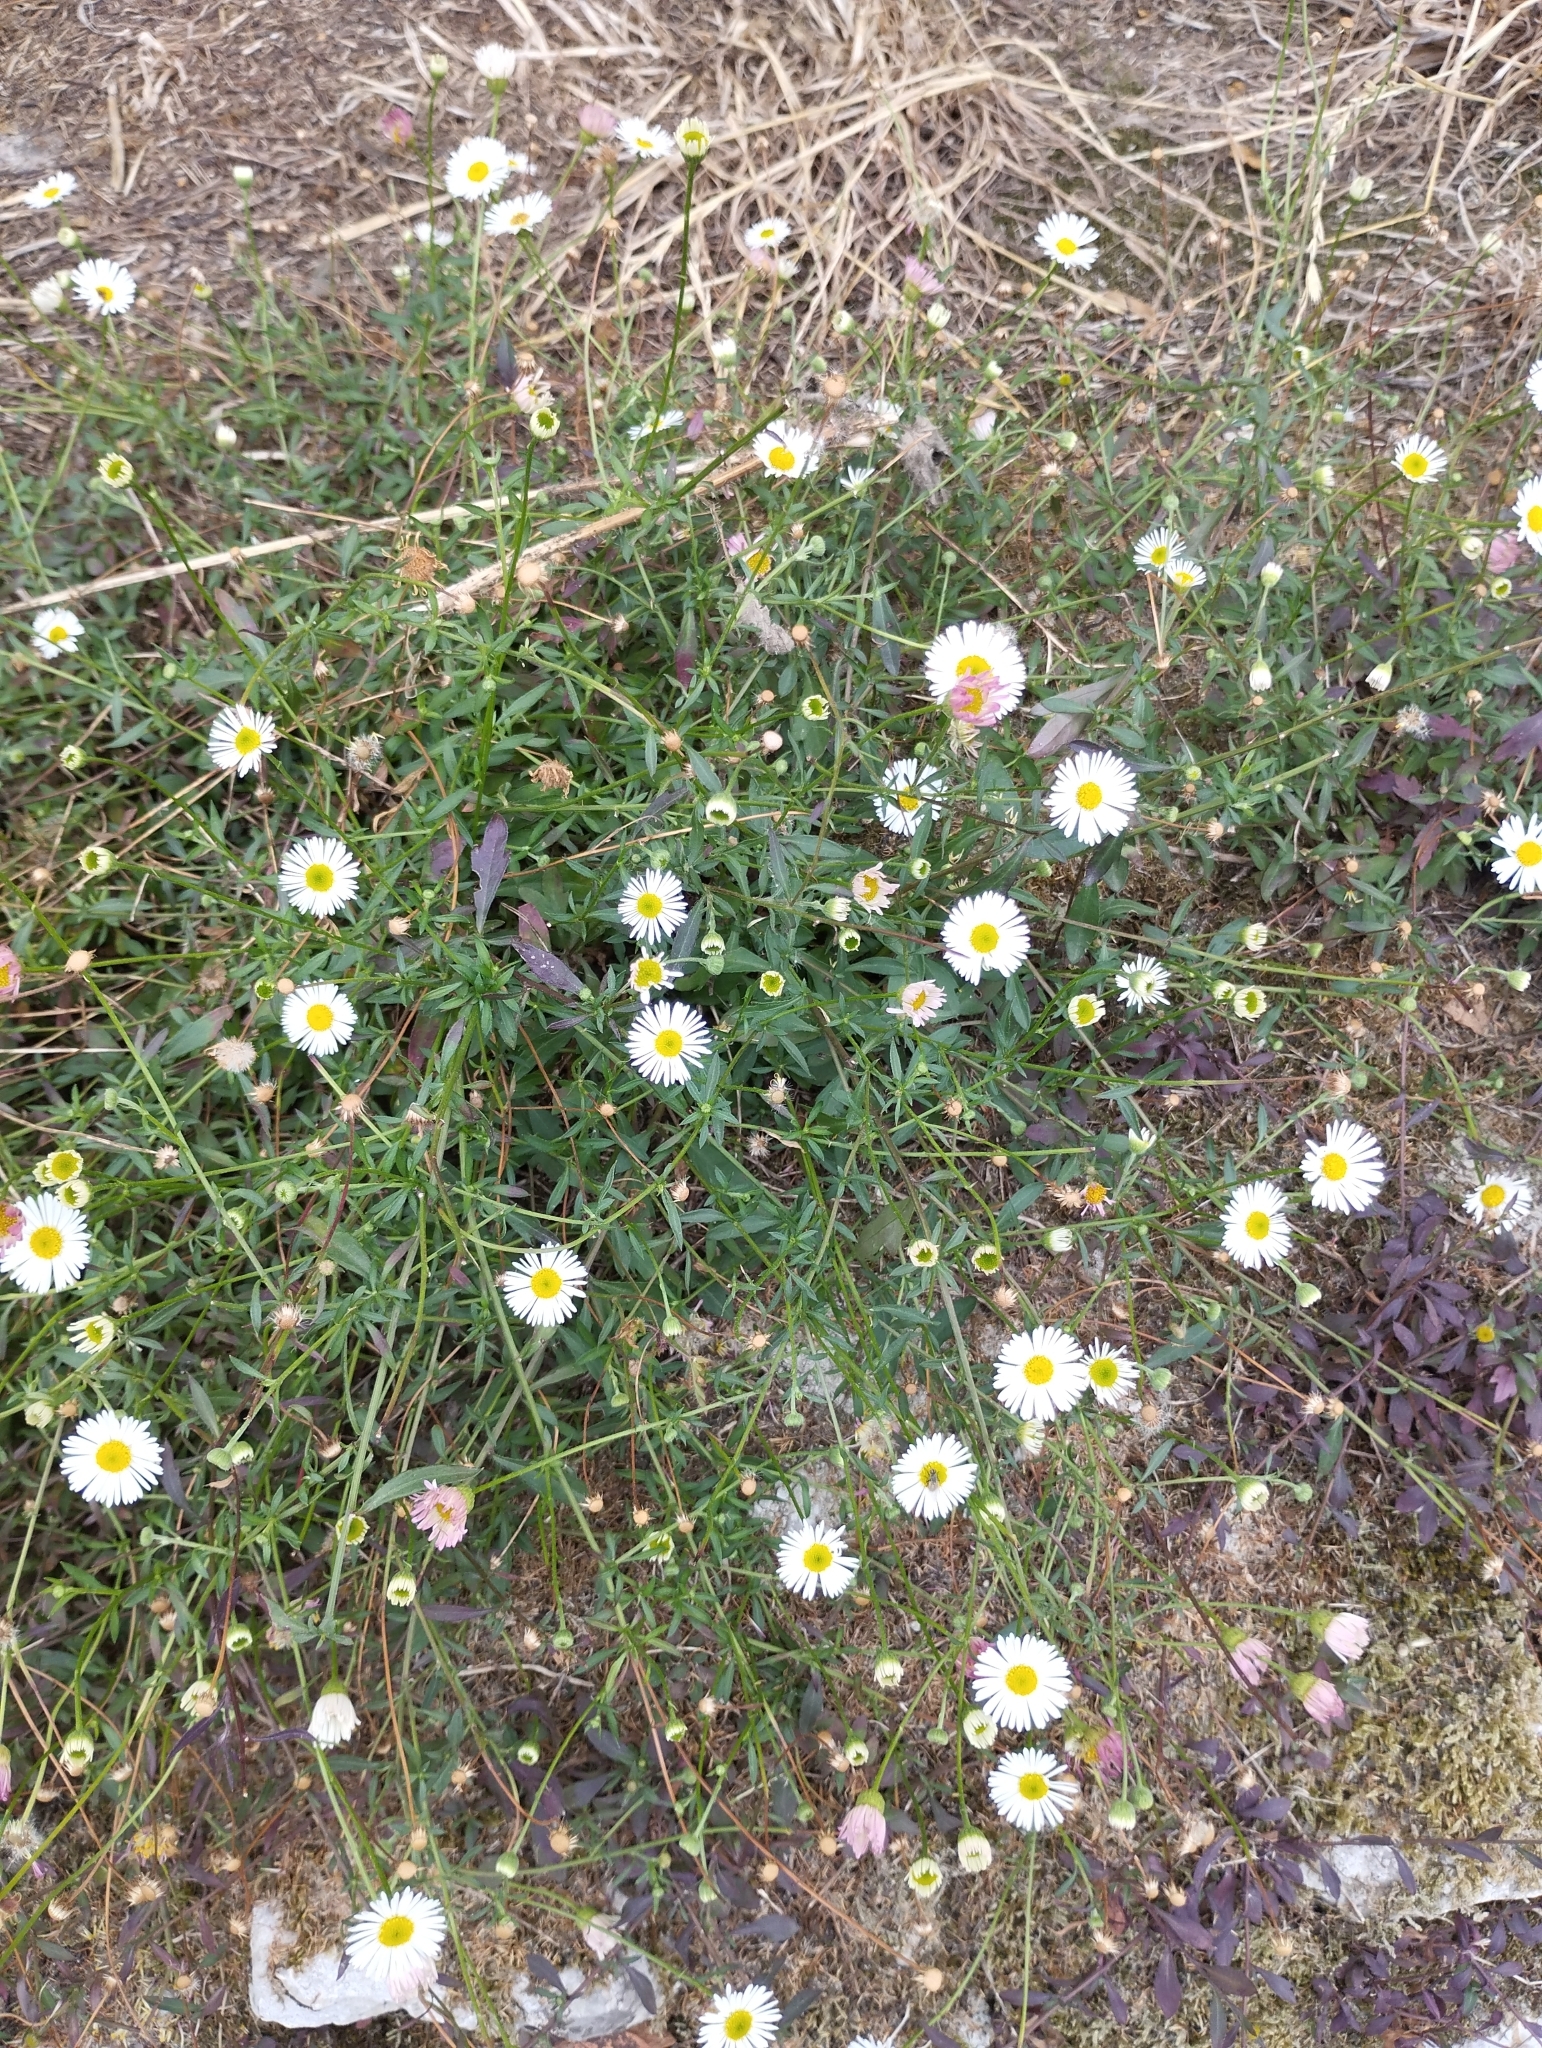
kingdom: Plantae
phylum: Tracheophyta
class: Magnoliopsida
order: Asterales
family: Asteraceae
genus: Erigeron
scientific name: Erigeron karvinskianus
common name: Mexican fleabane
